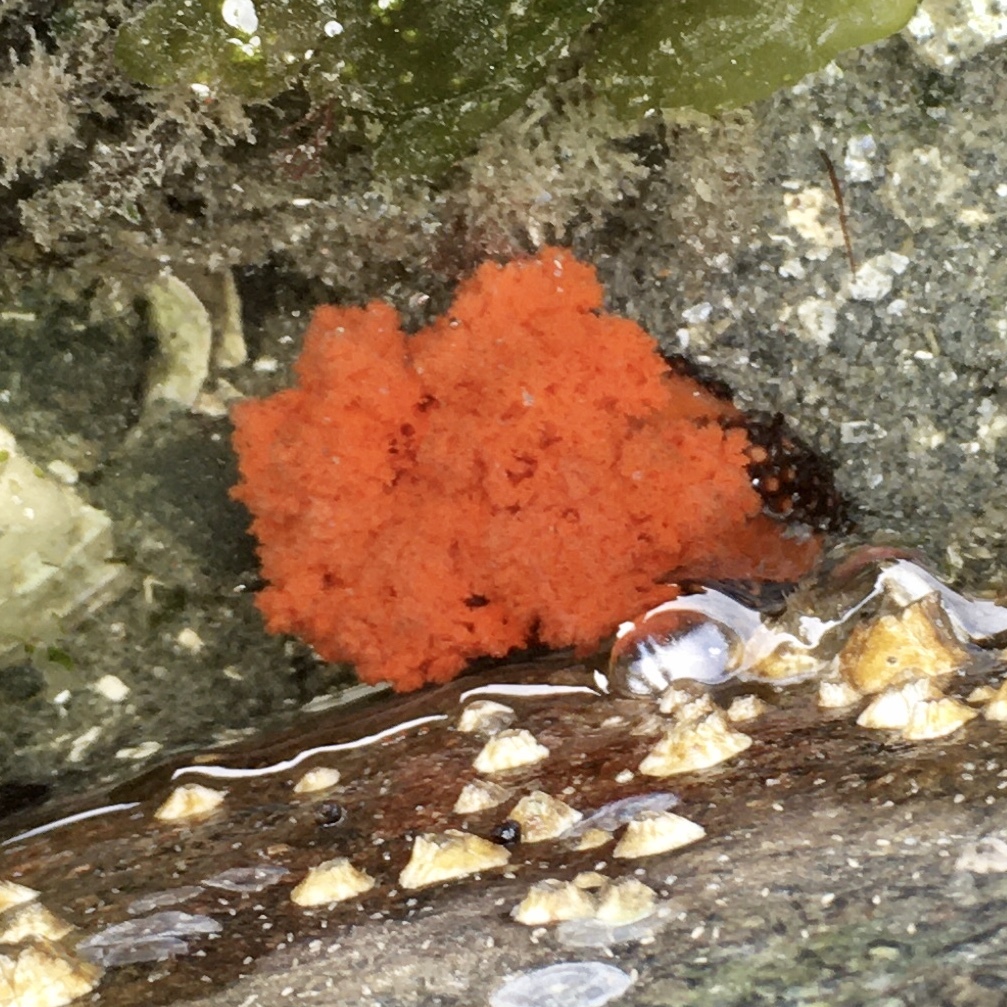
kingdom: Animalia
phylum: Echinodermata
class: Holothuroidea
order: Dendrochirotida
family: Cucumariidae
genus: Cucumaria
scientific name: Cucumaria miniata
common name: Orange sea cucumber
